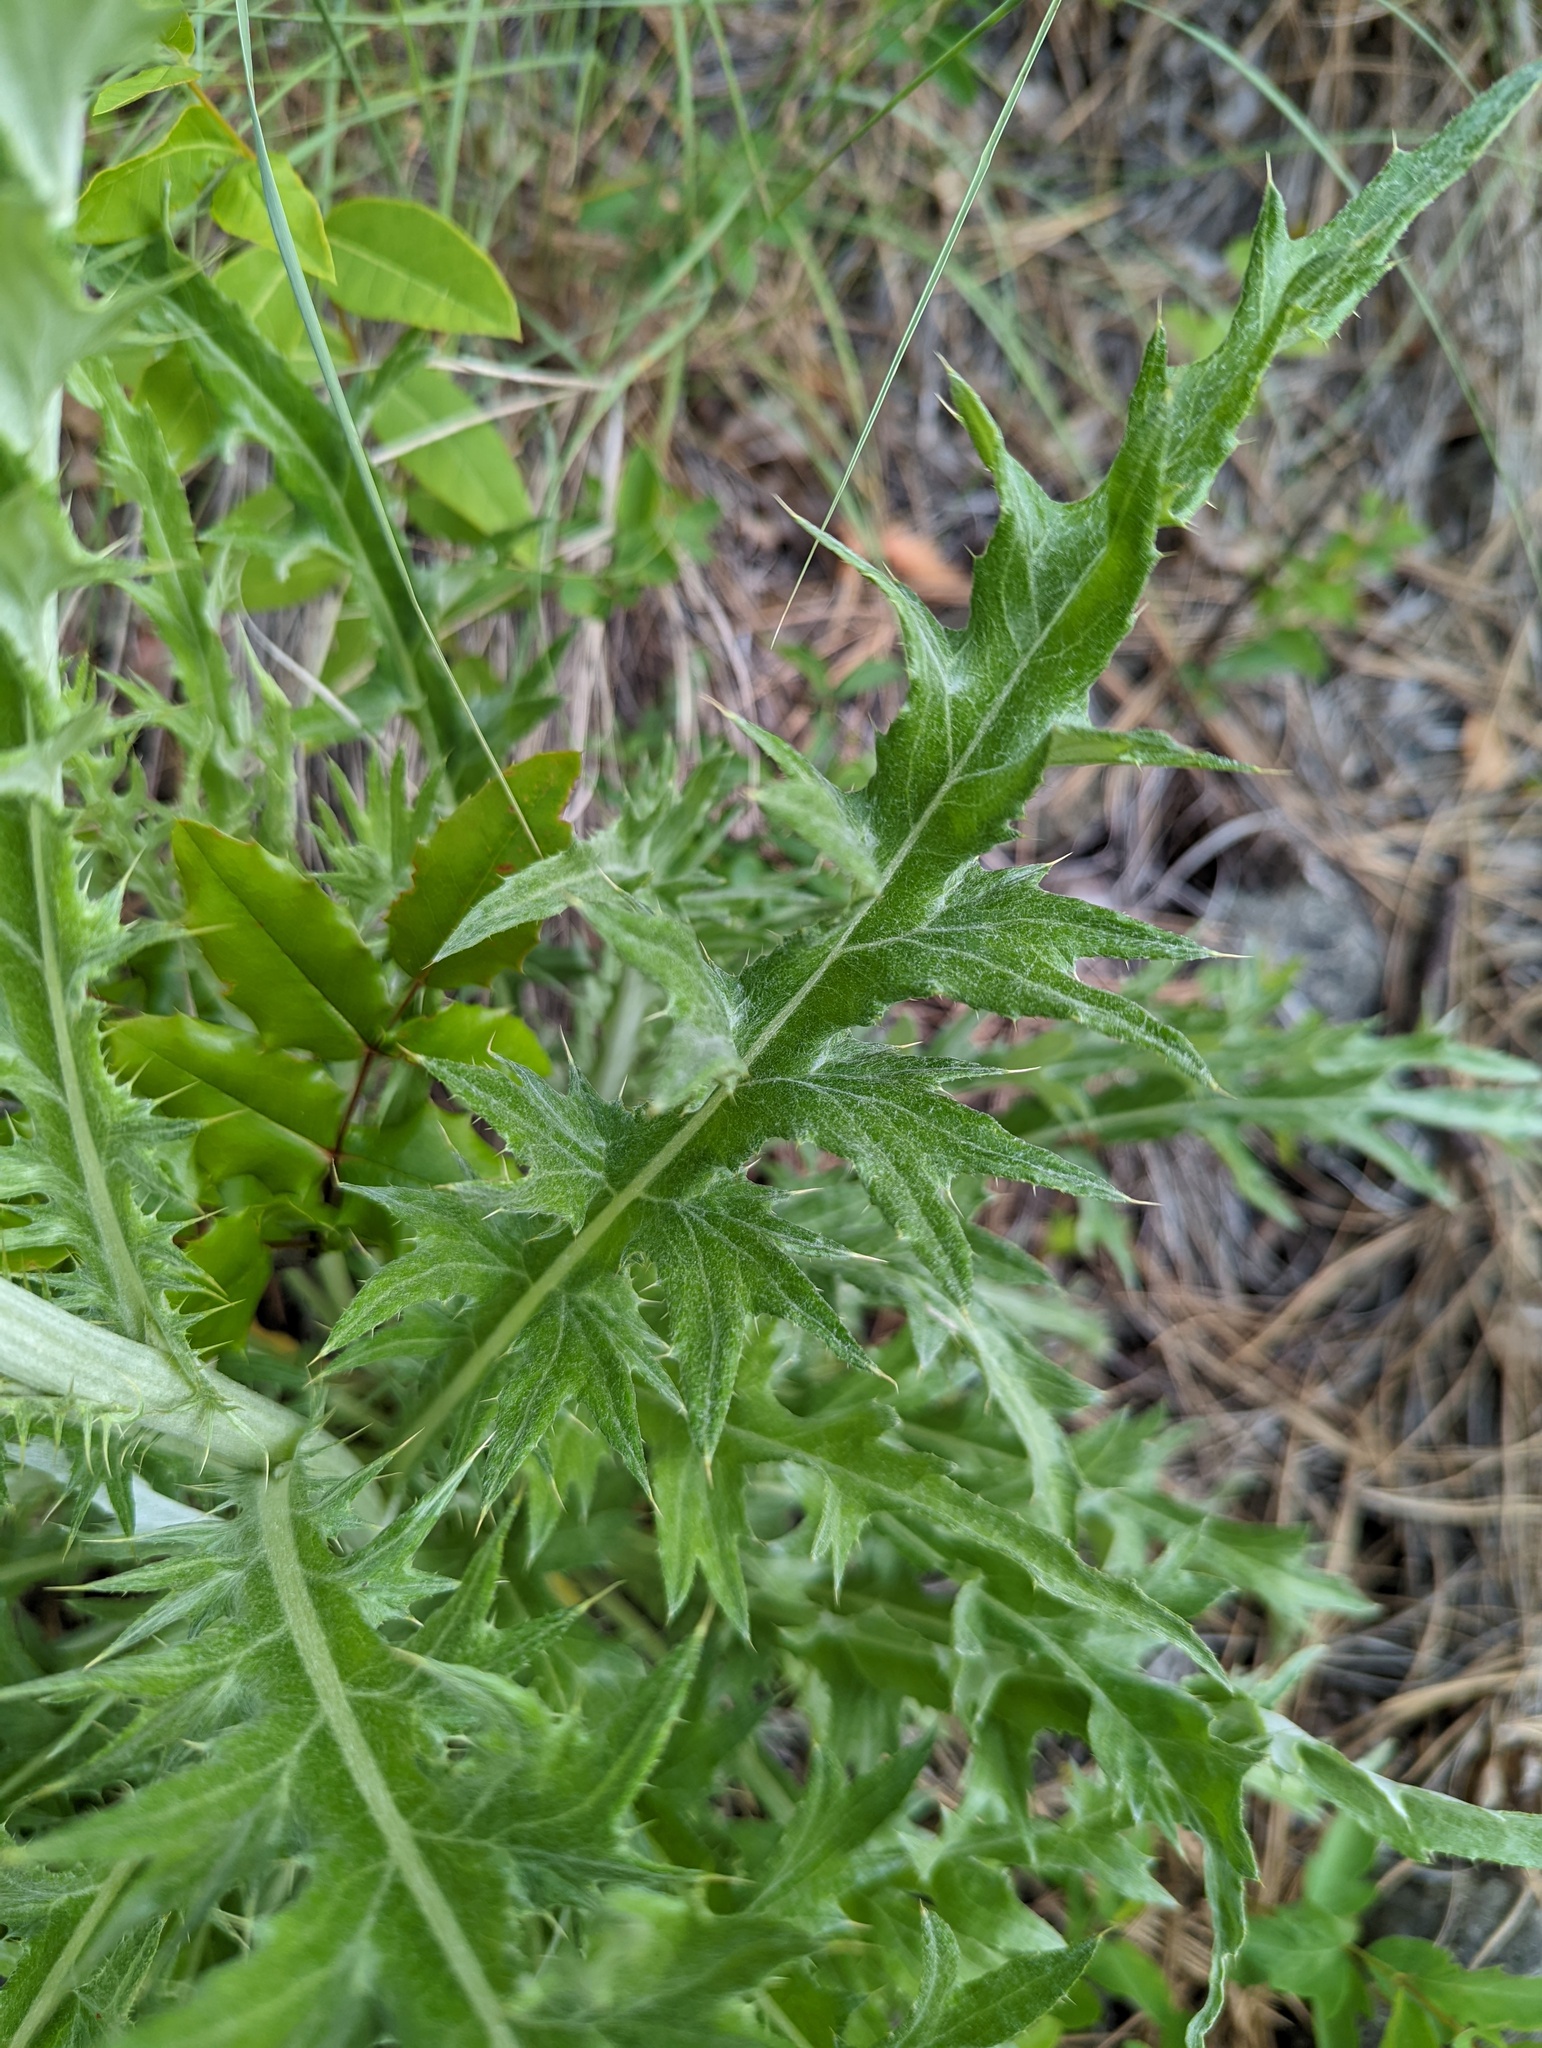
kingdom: Plantae
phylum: Tracheophyta
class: Magnoliopsida
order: Asterales
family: Asteraceae
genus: Cirsium
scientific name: Cirsium undulatum
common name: Pasture thistle
